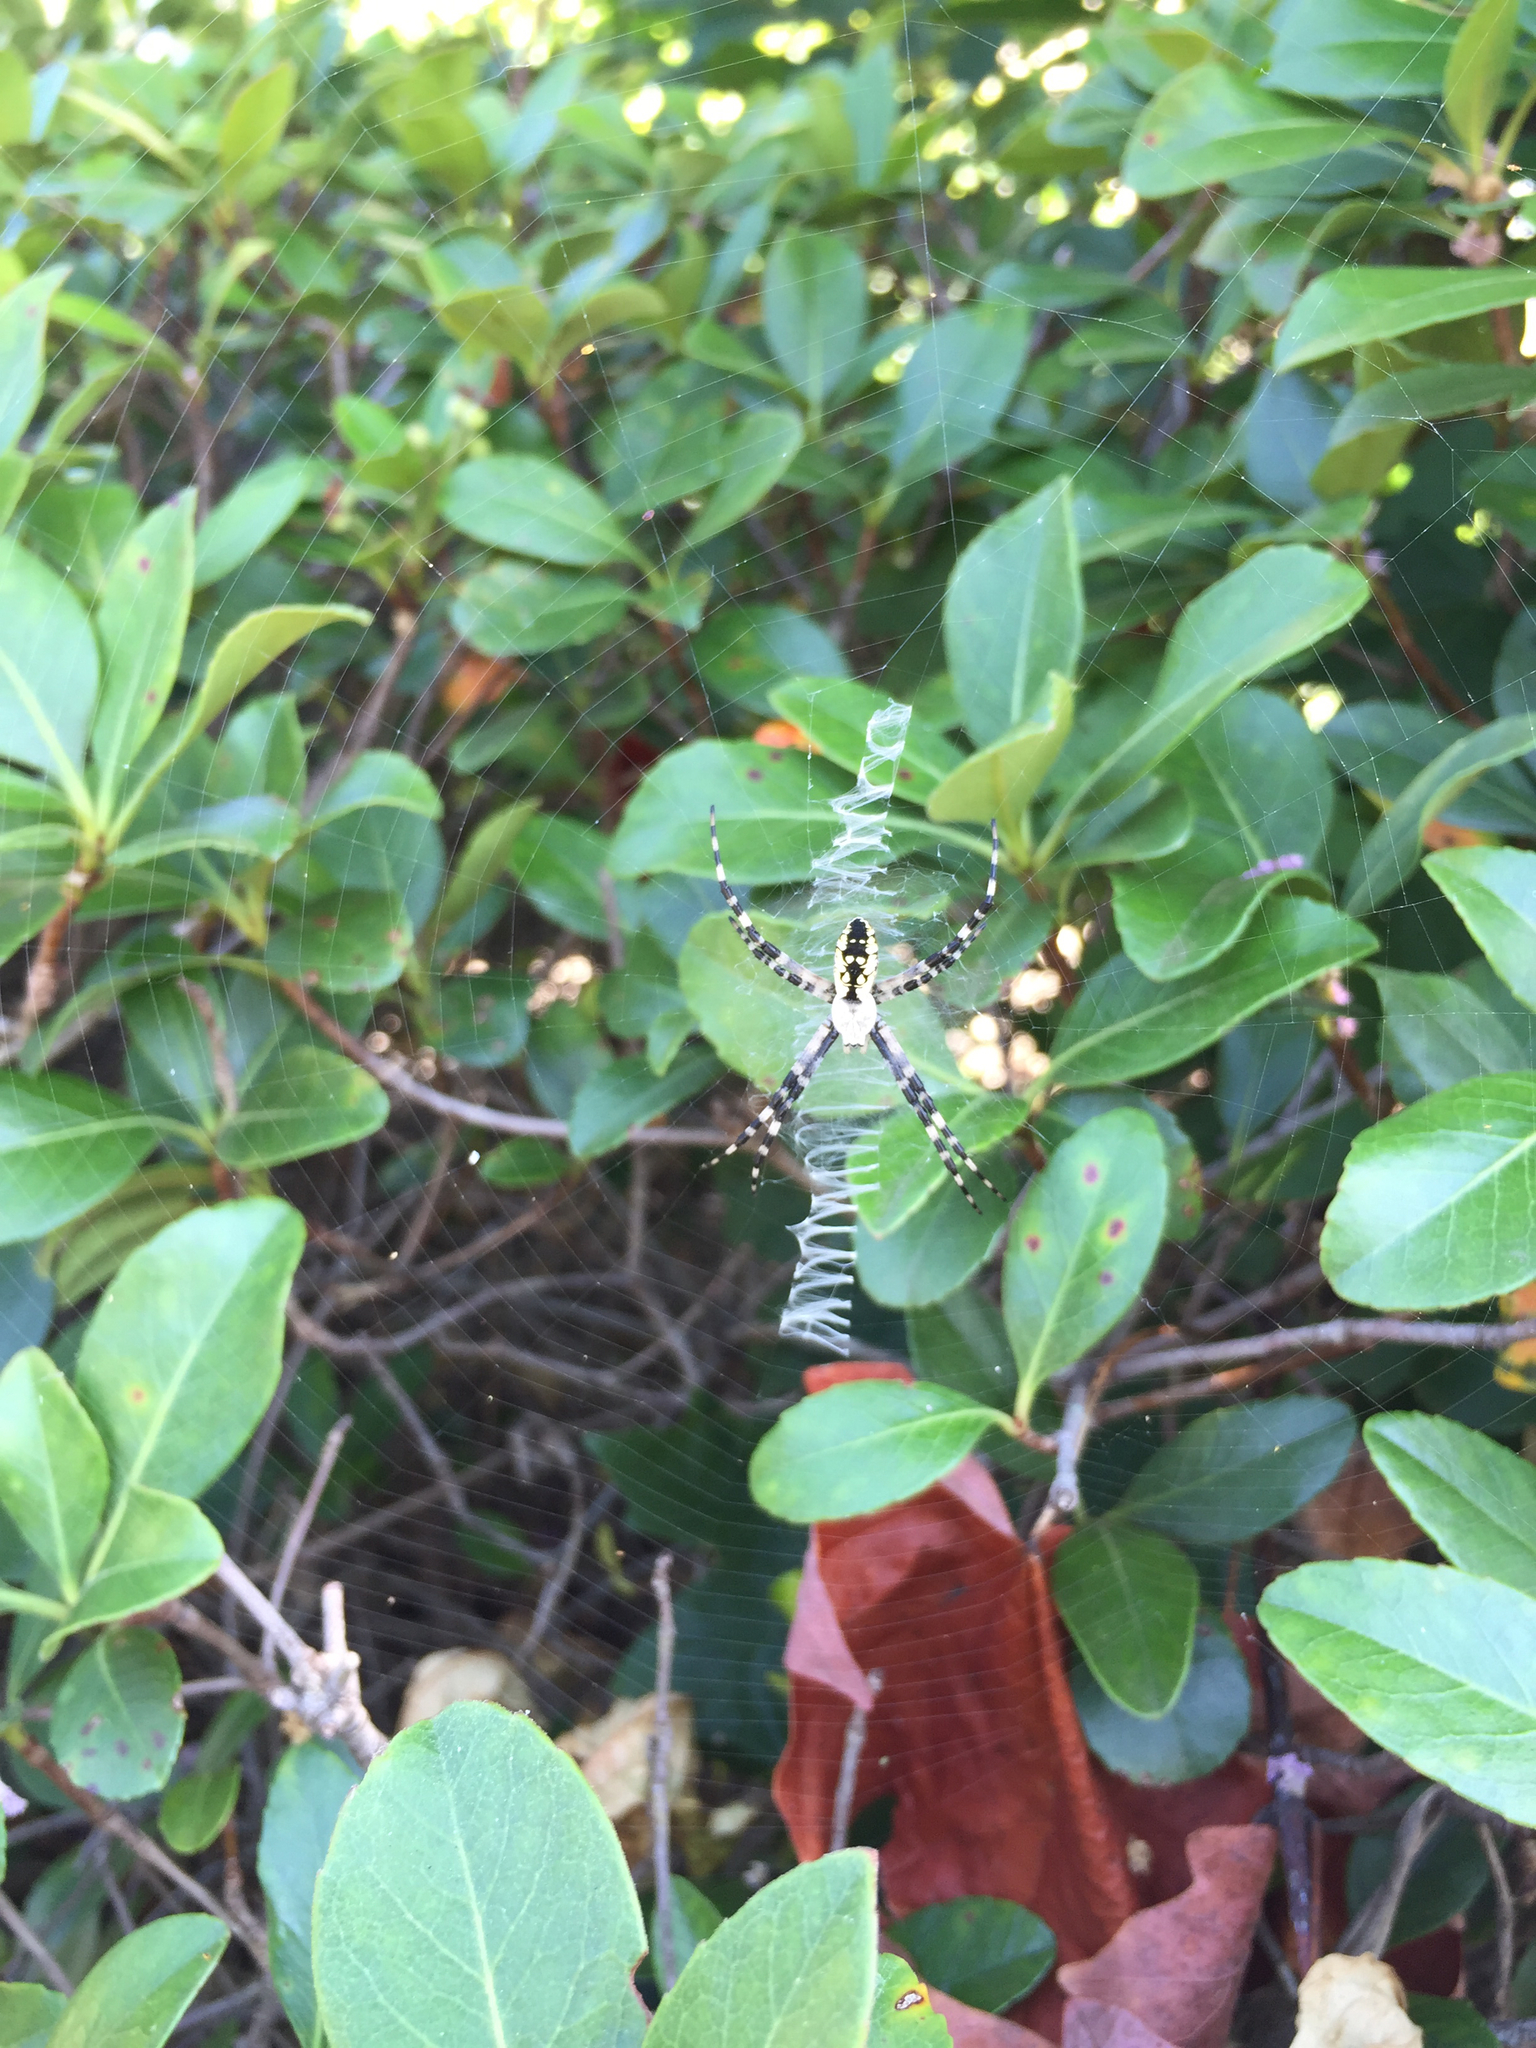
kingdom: Animalia
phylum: Arthropoda
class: Arachnida
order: Araneae
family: Araneidae
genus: Argiope
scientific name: Argiope aurantia
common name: Orb weavers
